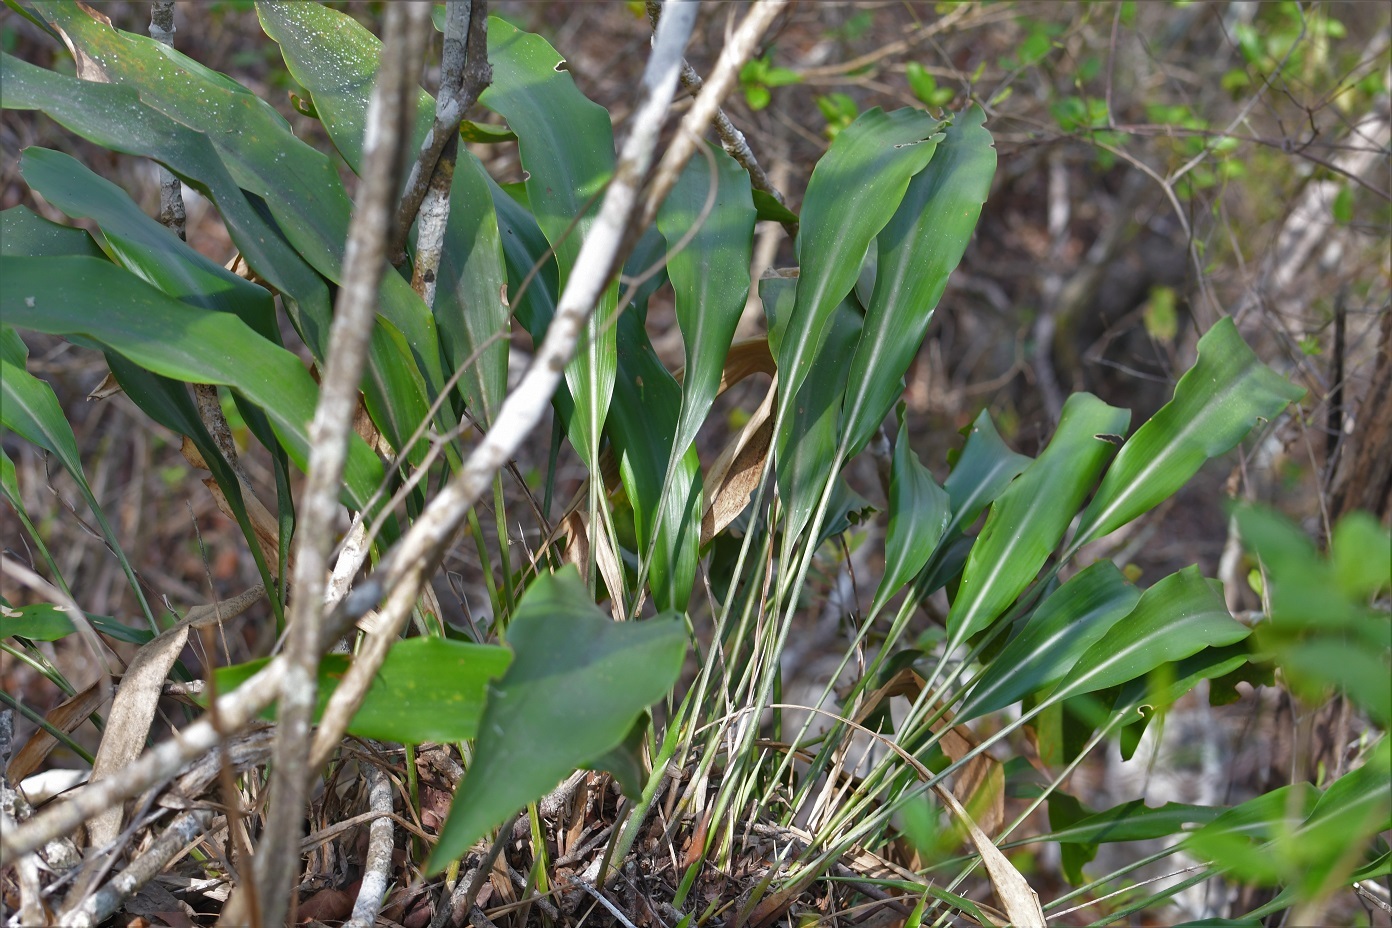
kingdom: Plantae
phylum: Tracheophyta
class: Liliopsida
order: Poales
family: Bromeliaceae
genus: Pitcairnia
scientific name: Pitcairnia chiapensis
